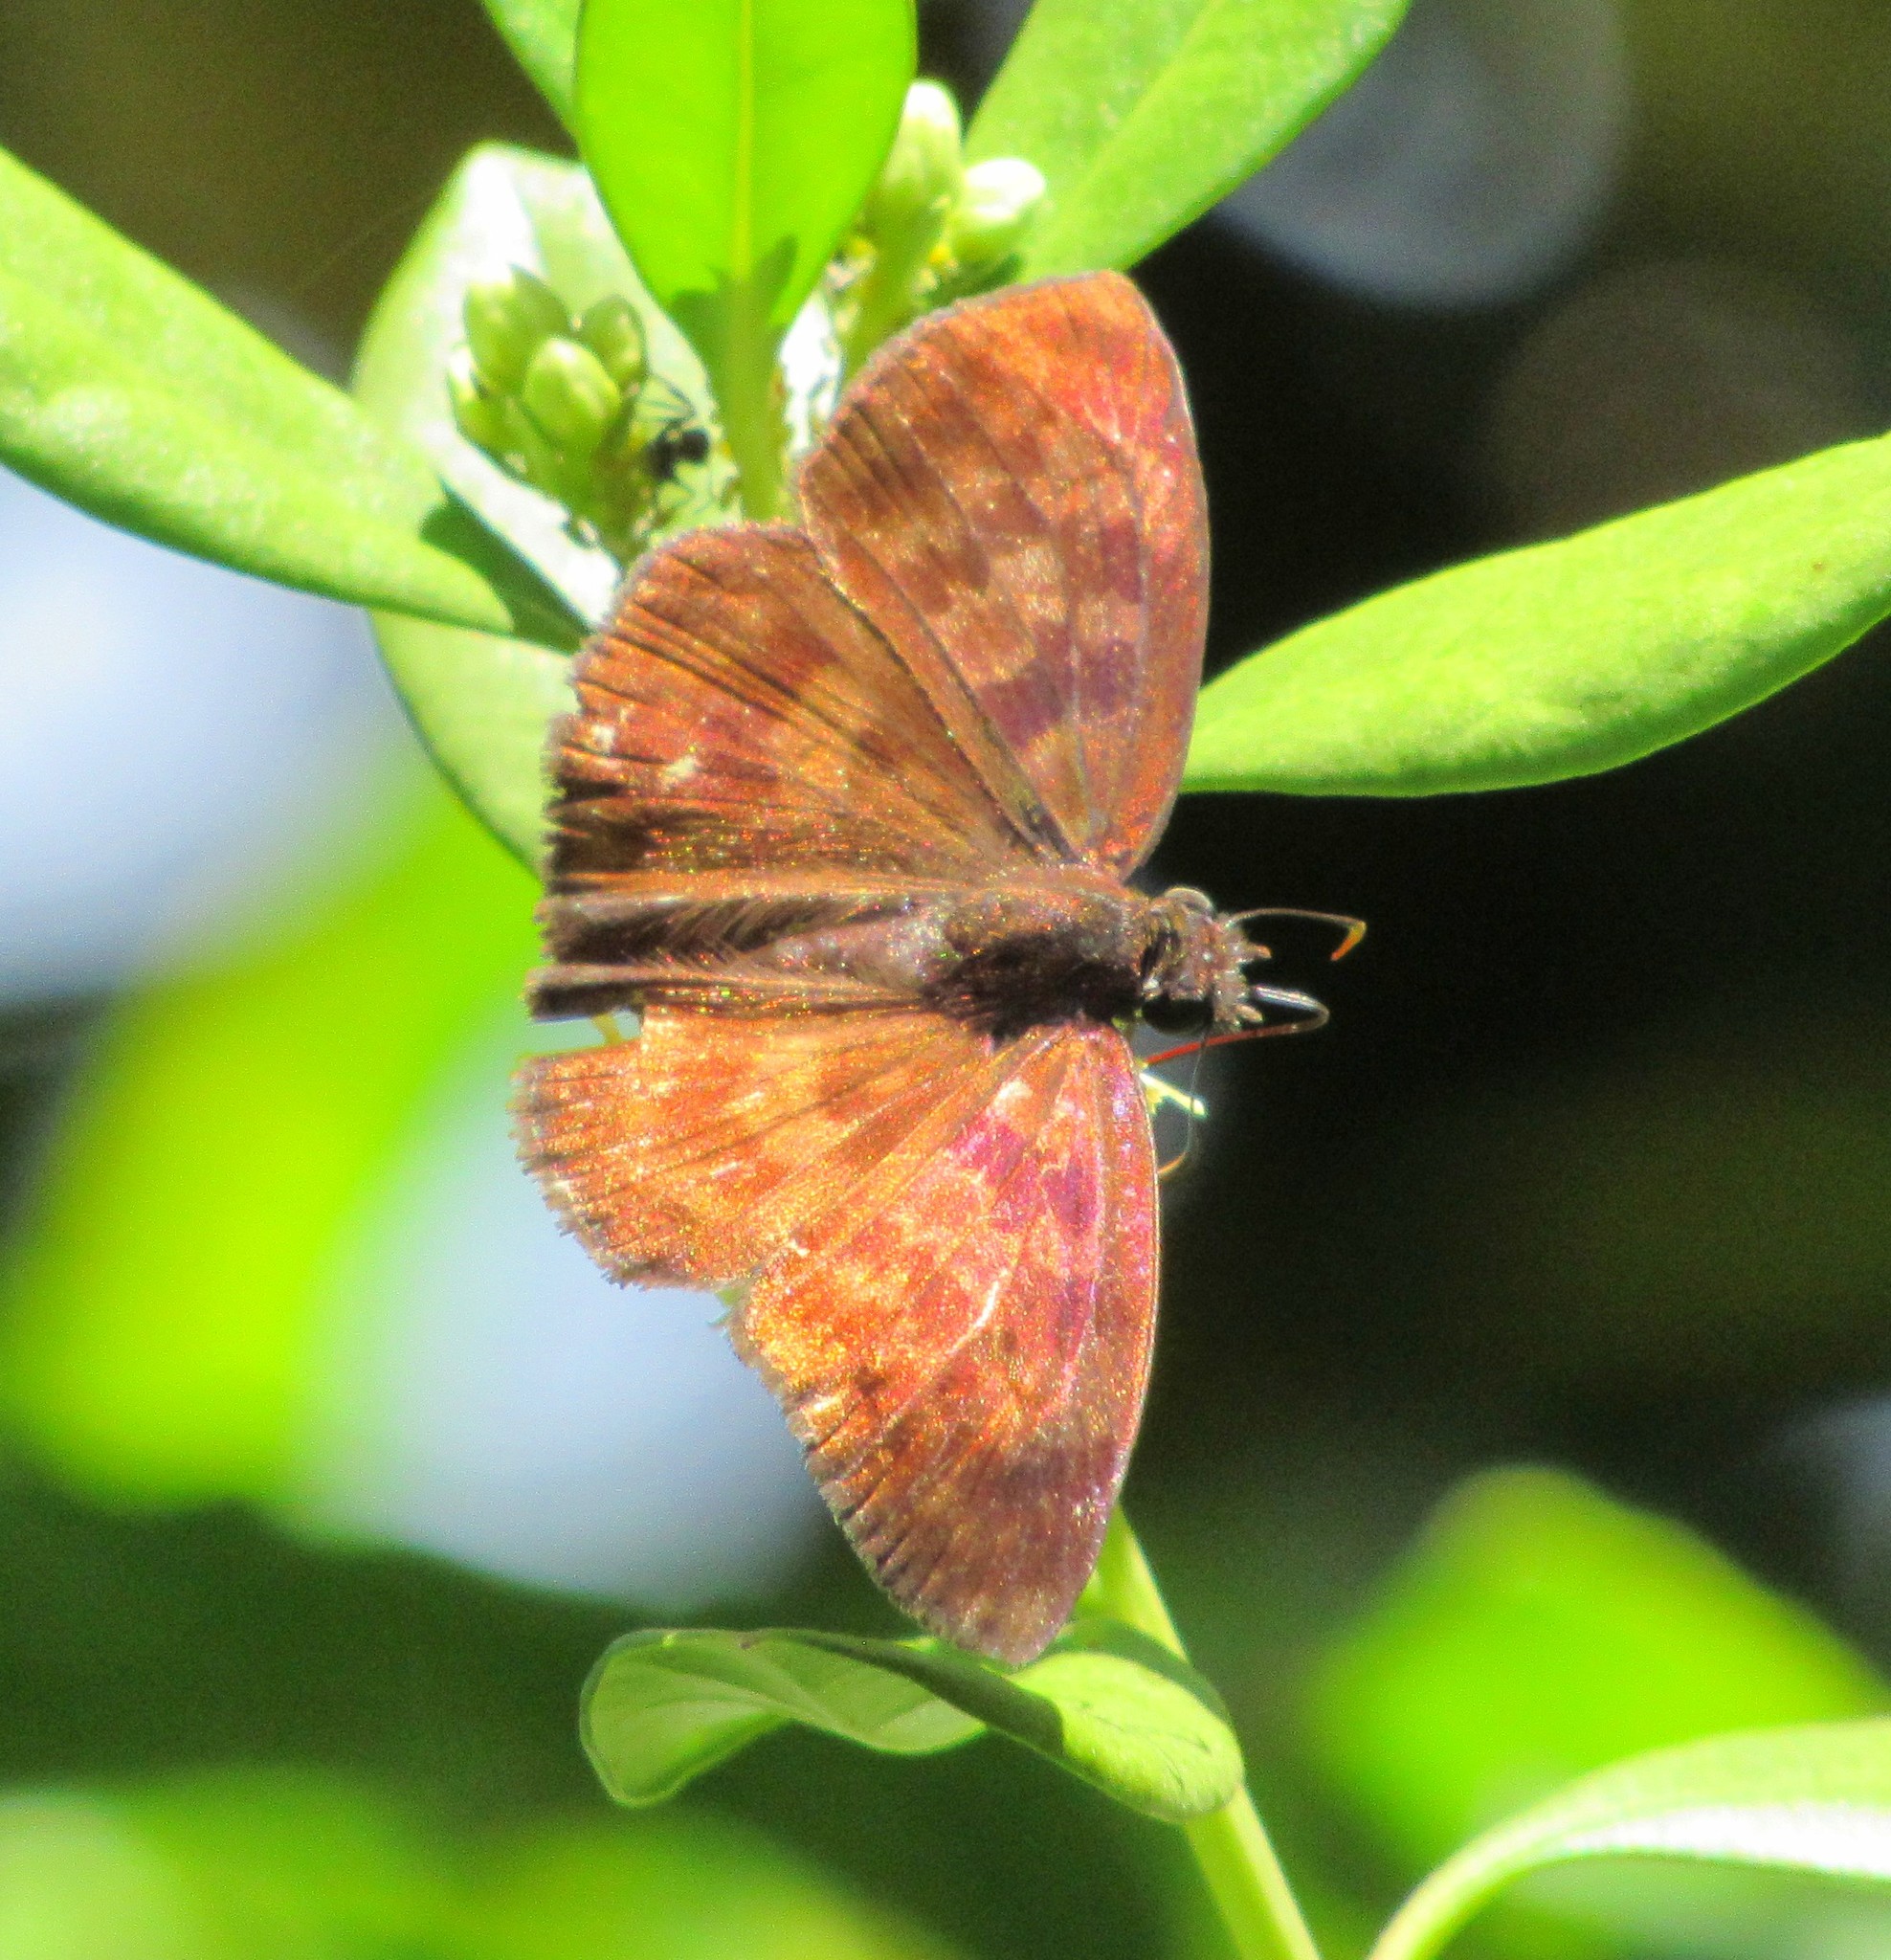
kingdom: Animalia
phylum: Arthropoda
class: Insecta
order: Lepidoptera
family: Hesperiidae
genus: Anastrus
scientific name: Anastrus Echelatus sempiternus
